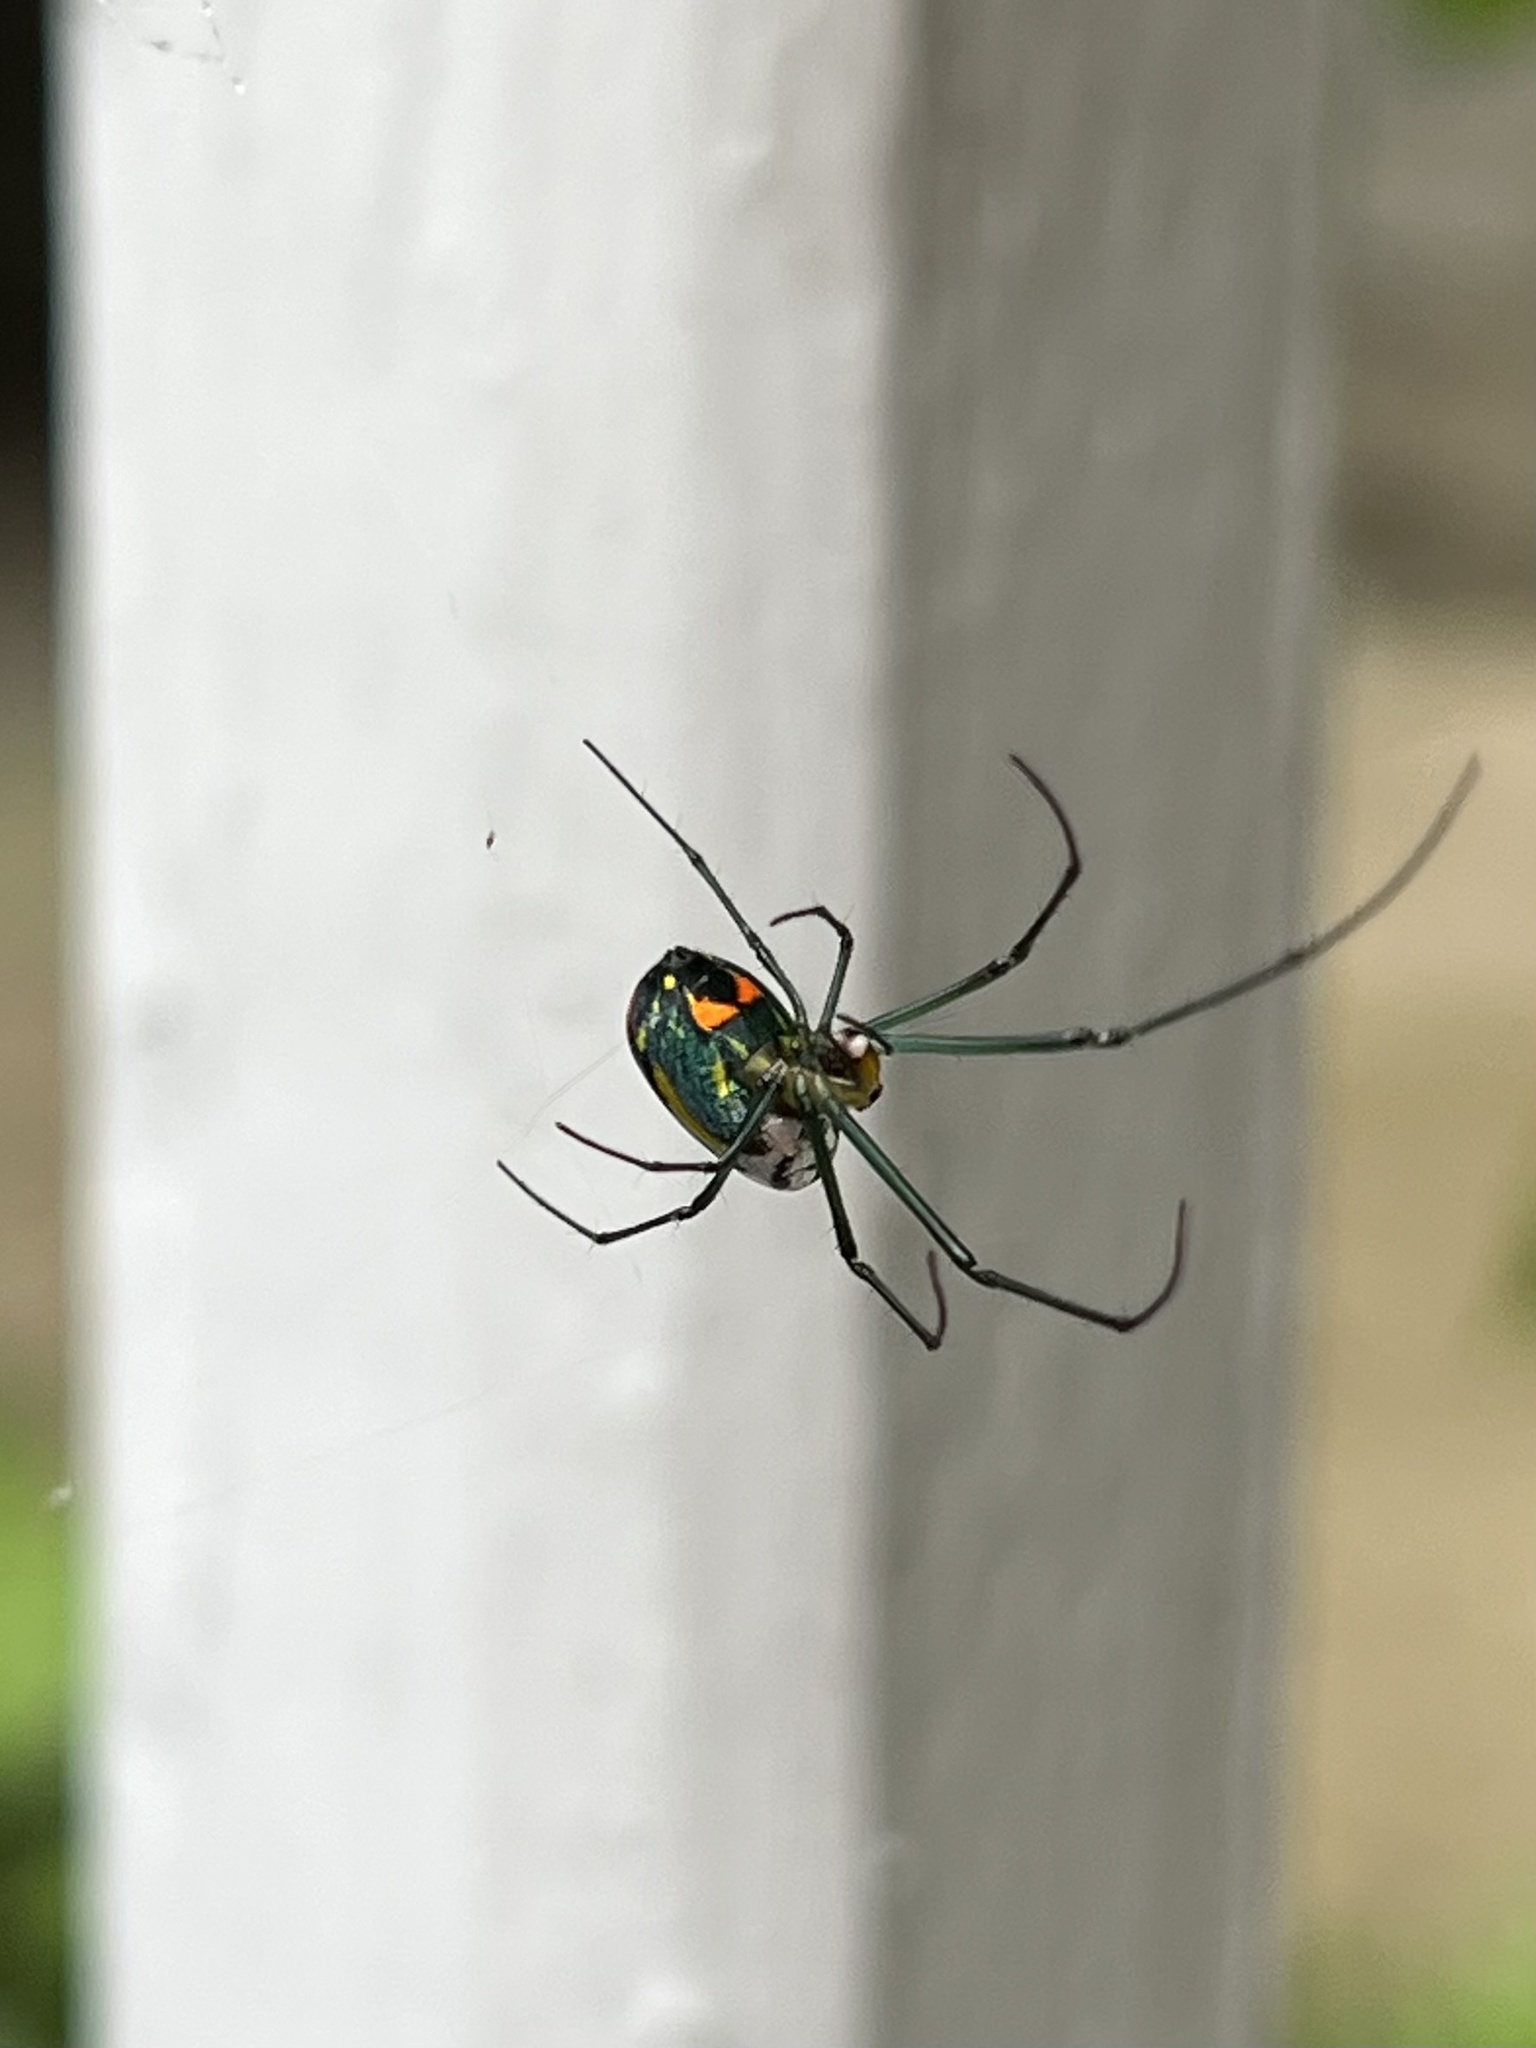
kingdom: Animalia
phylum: Arthropoda
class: Arachnida
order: Araneae
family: Tetragnathidae
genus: Leucauge
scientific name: Leucauge argyrobapta
